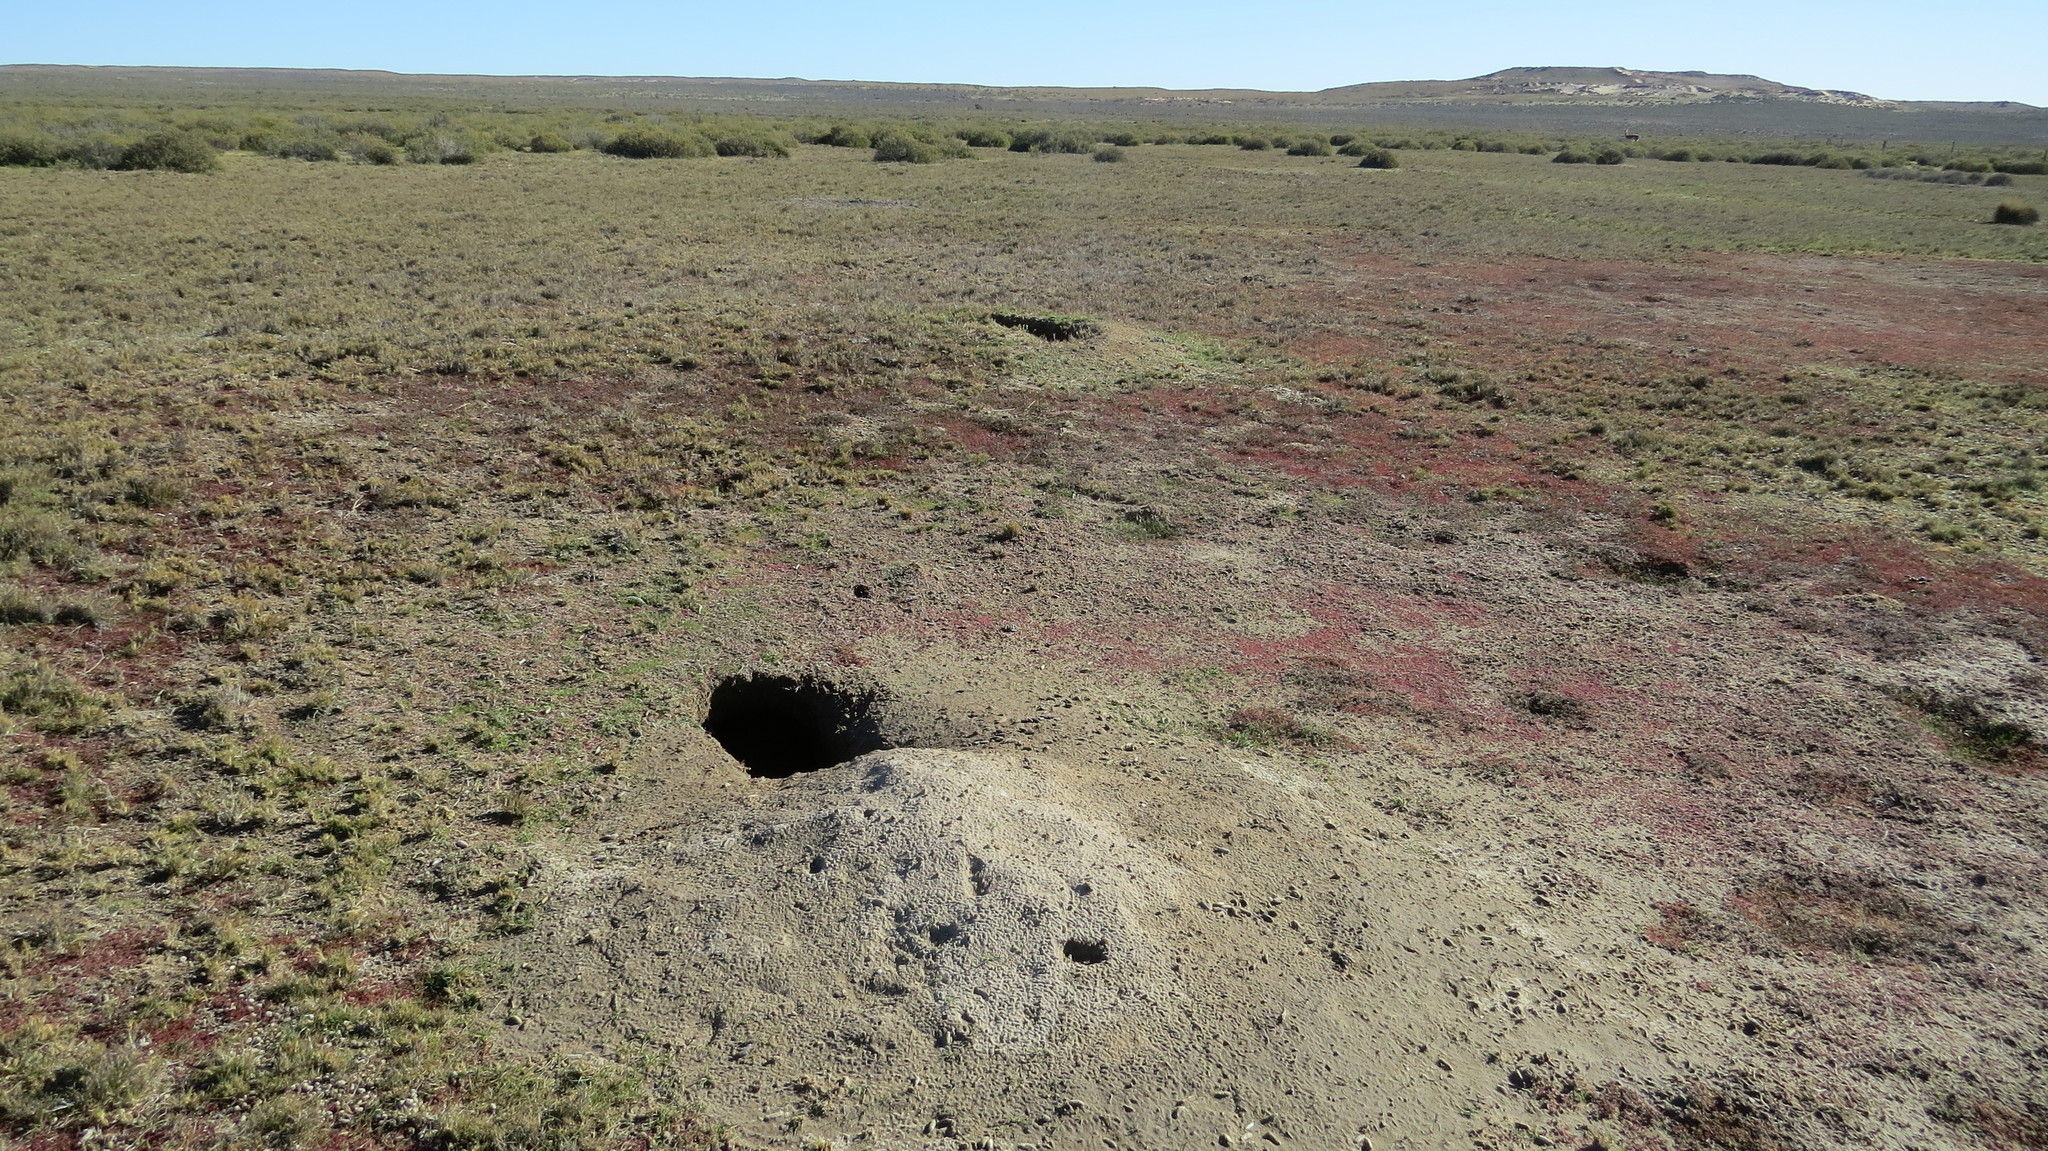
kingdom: Animalia
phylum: Chordata
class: Mammalia
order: Rodentia
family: Caviidae
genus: Dolichotis
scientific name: Dolichotis patagonum
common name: Patagonian mara
